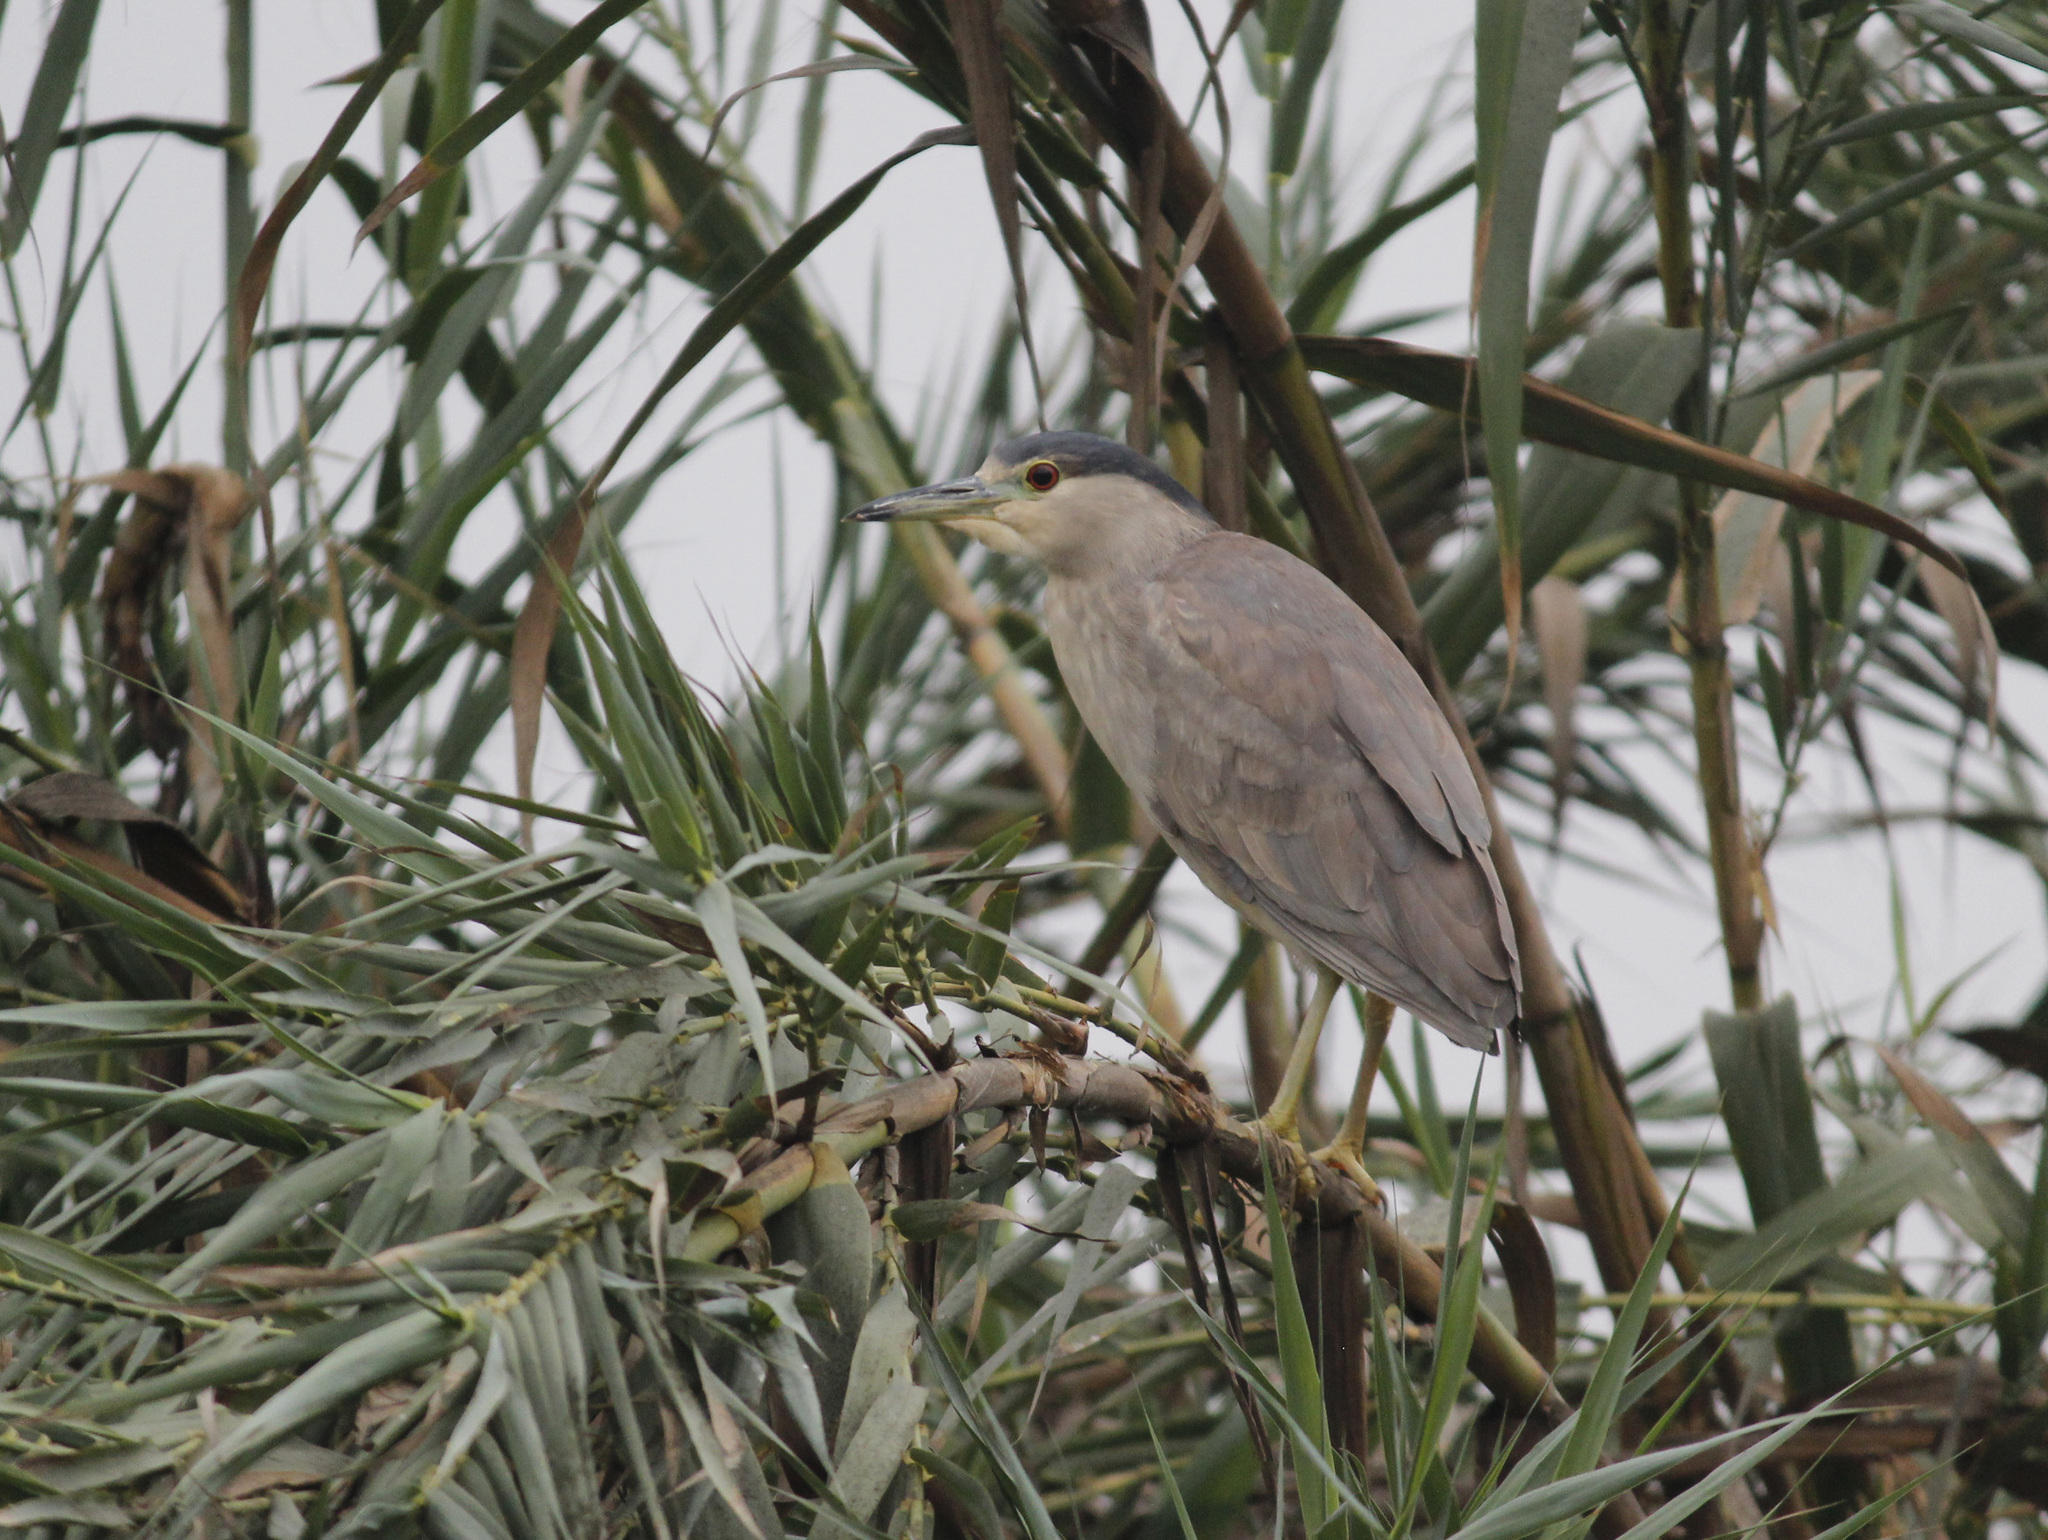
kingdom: Animalia
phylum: Chordata
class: Aves
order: Pelecaniformes
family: Ardeidae
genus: Nycticorax
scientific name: Nycticorax nycticorax
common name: Black-crowned night heron
